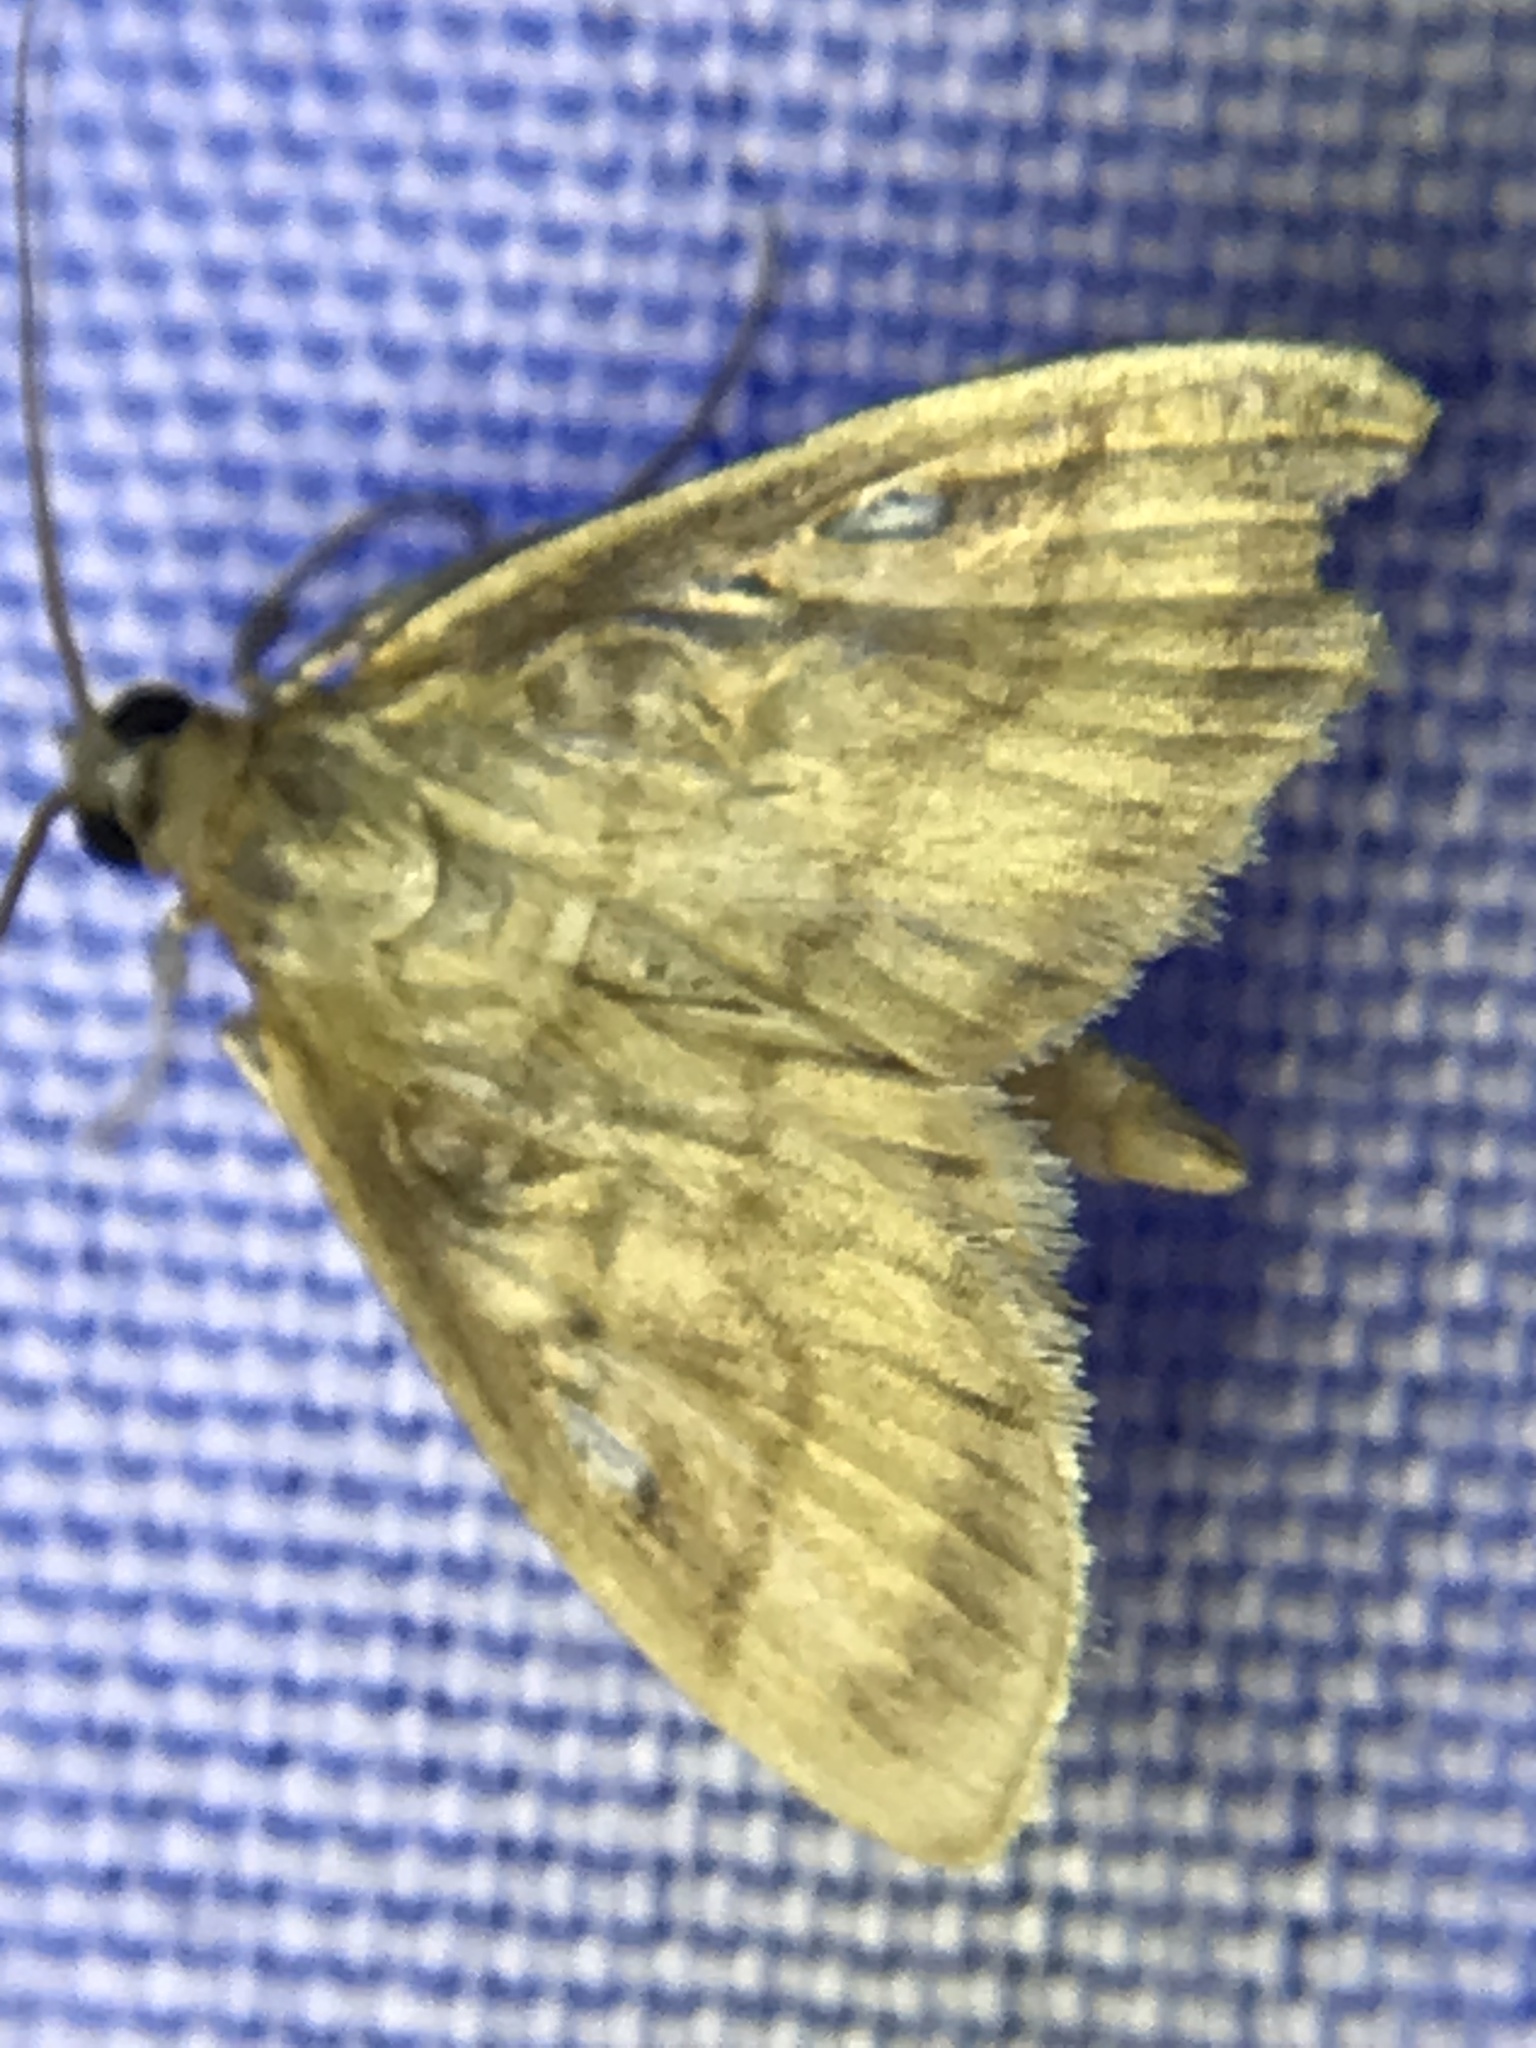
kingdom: Animalia
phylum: Arthropoda
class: Insecta
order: Lepidoptera
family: Crambidae
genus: Crocidophora
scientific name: Crocidophora tuberculalis
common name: Pale-winged crocidiphora moth
